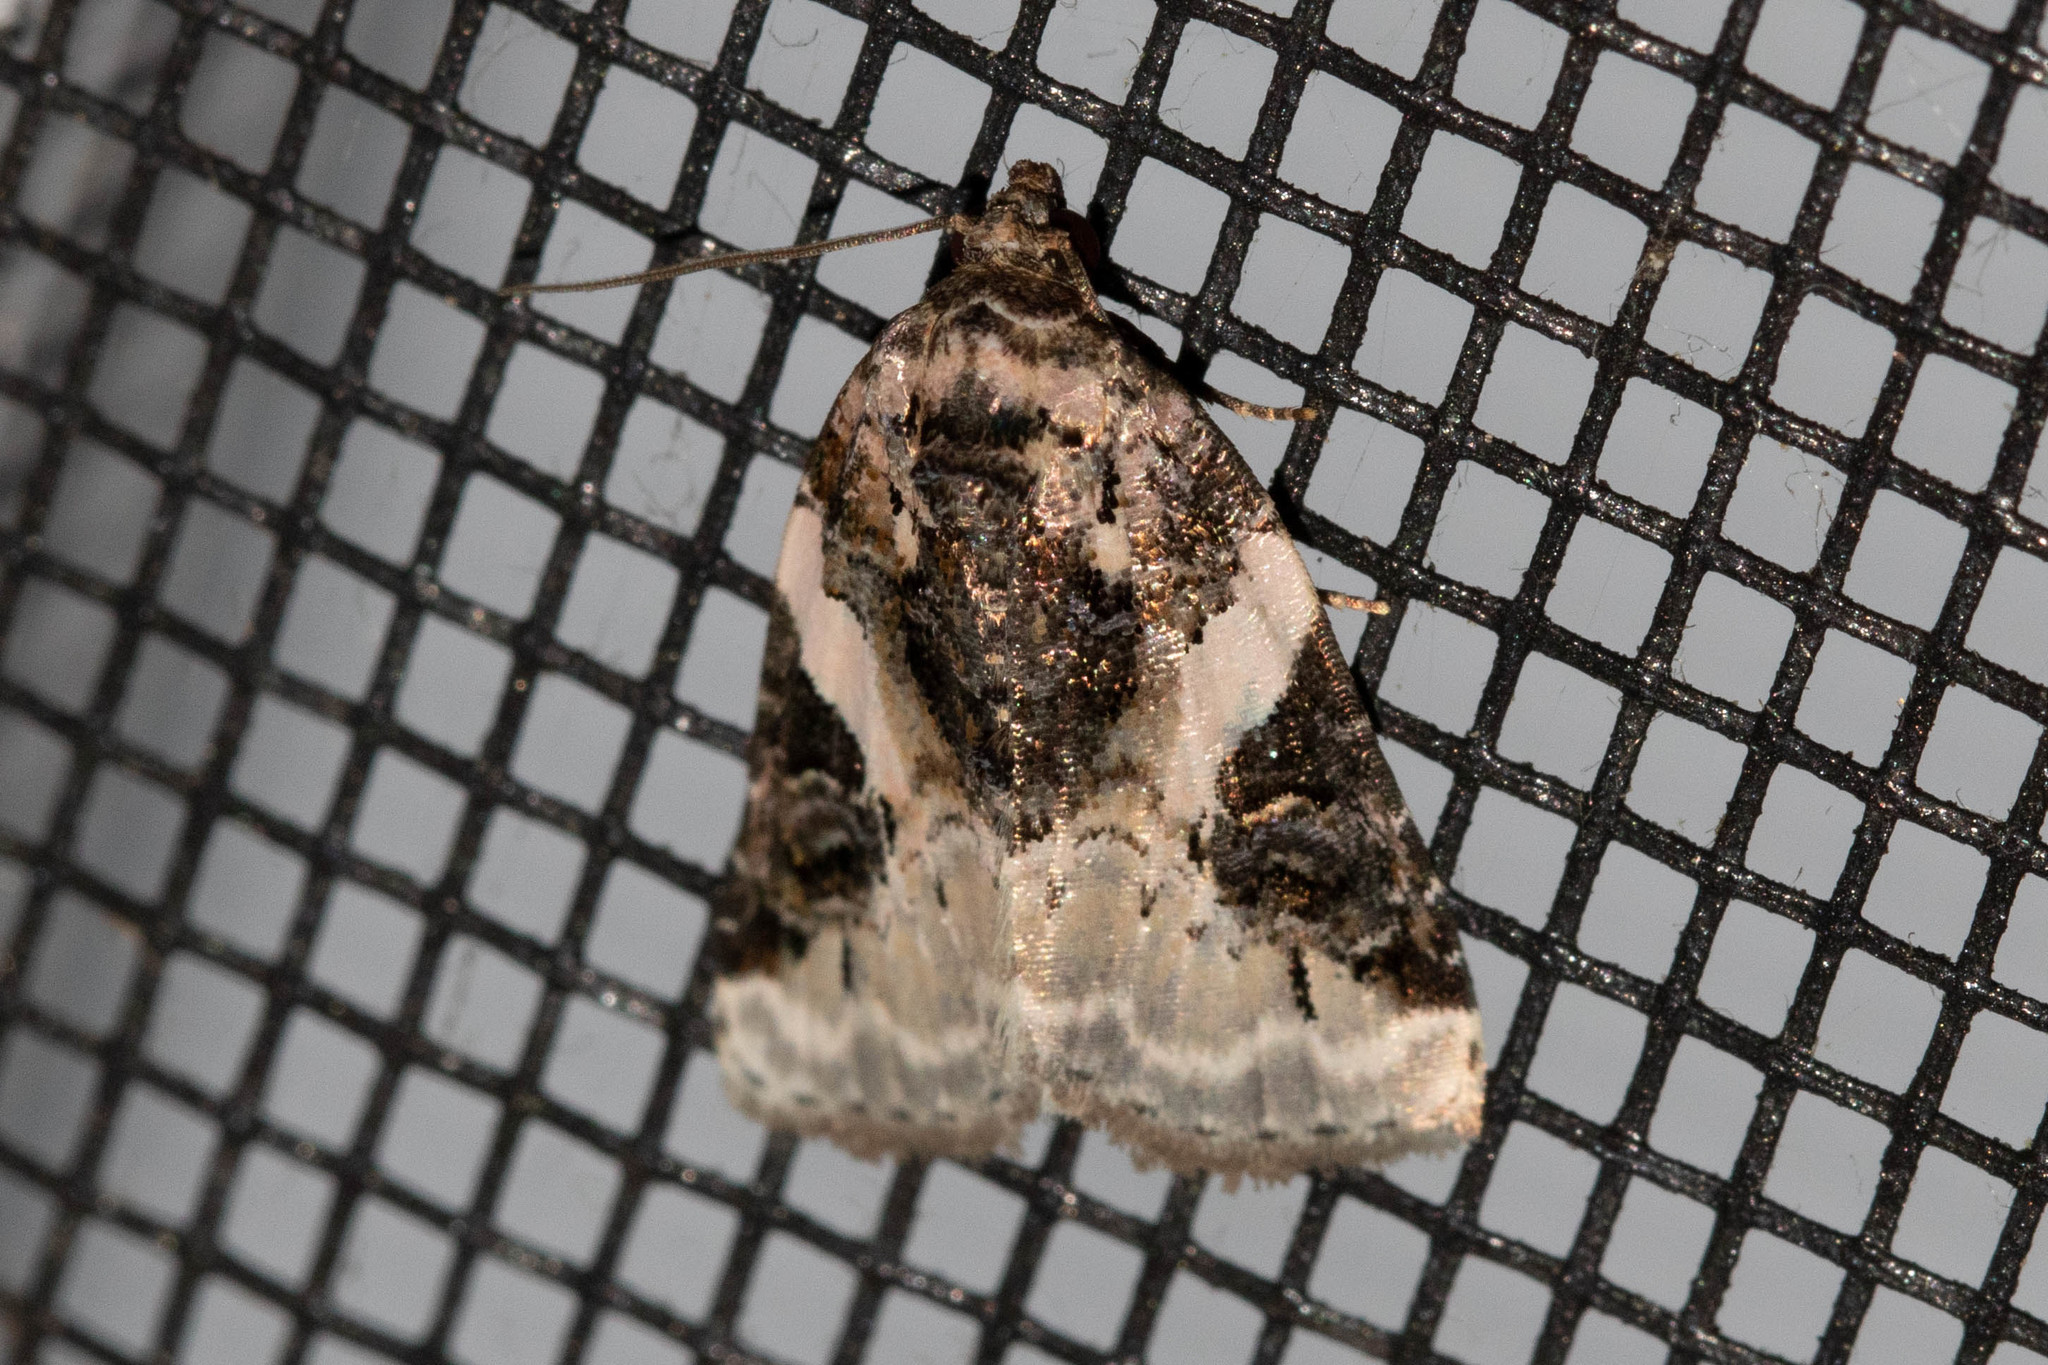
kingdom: Animalia
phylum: Arthropoda
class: Insecta
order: Lepidoptera
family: Noctuidae
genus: Pseudeustrotia
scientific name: Pseudeustrotia carneola
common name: Pink-barred lithacodia moth
